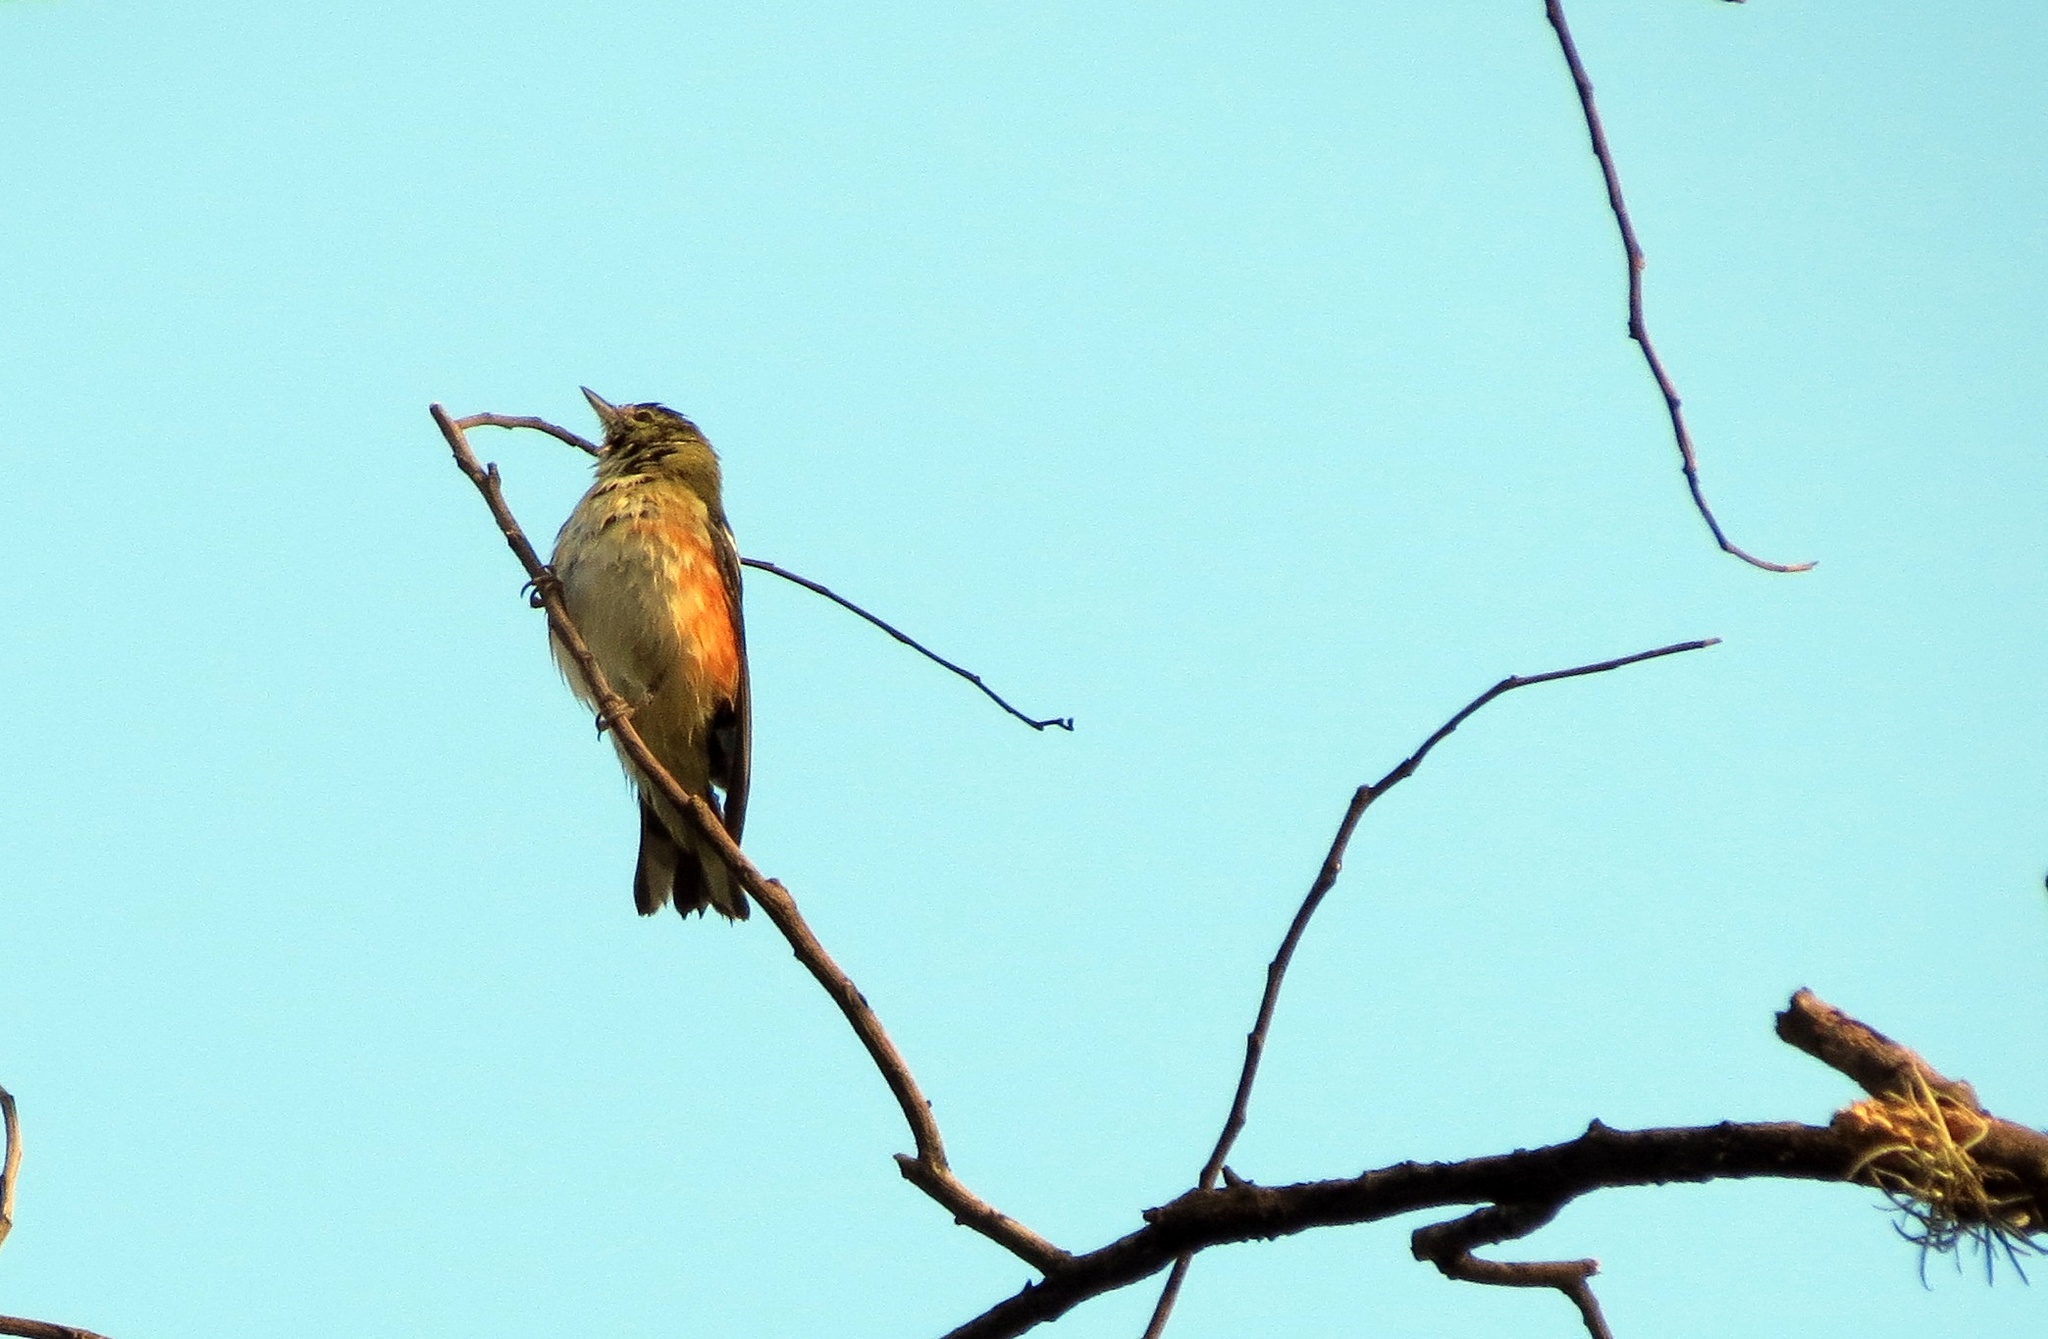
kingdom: Animalia
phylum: Chordata
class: Aves
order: Passeriformes
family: Parulidae
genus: Setophaga
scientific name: Setophaga castanea
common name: Bay-breasted warbler
